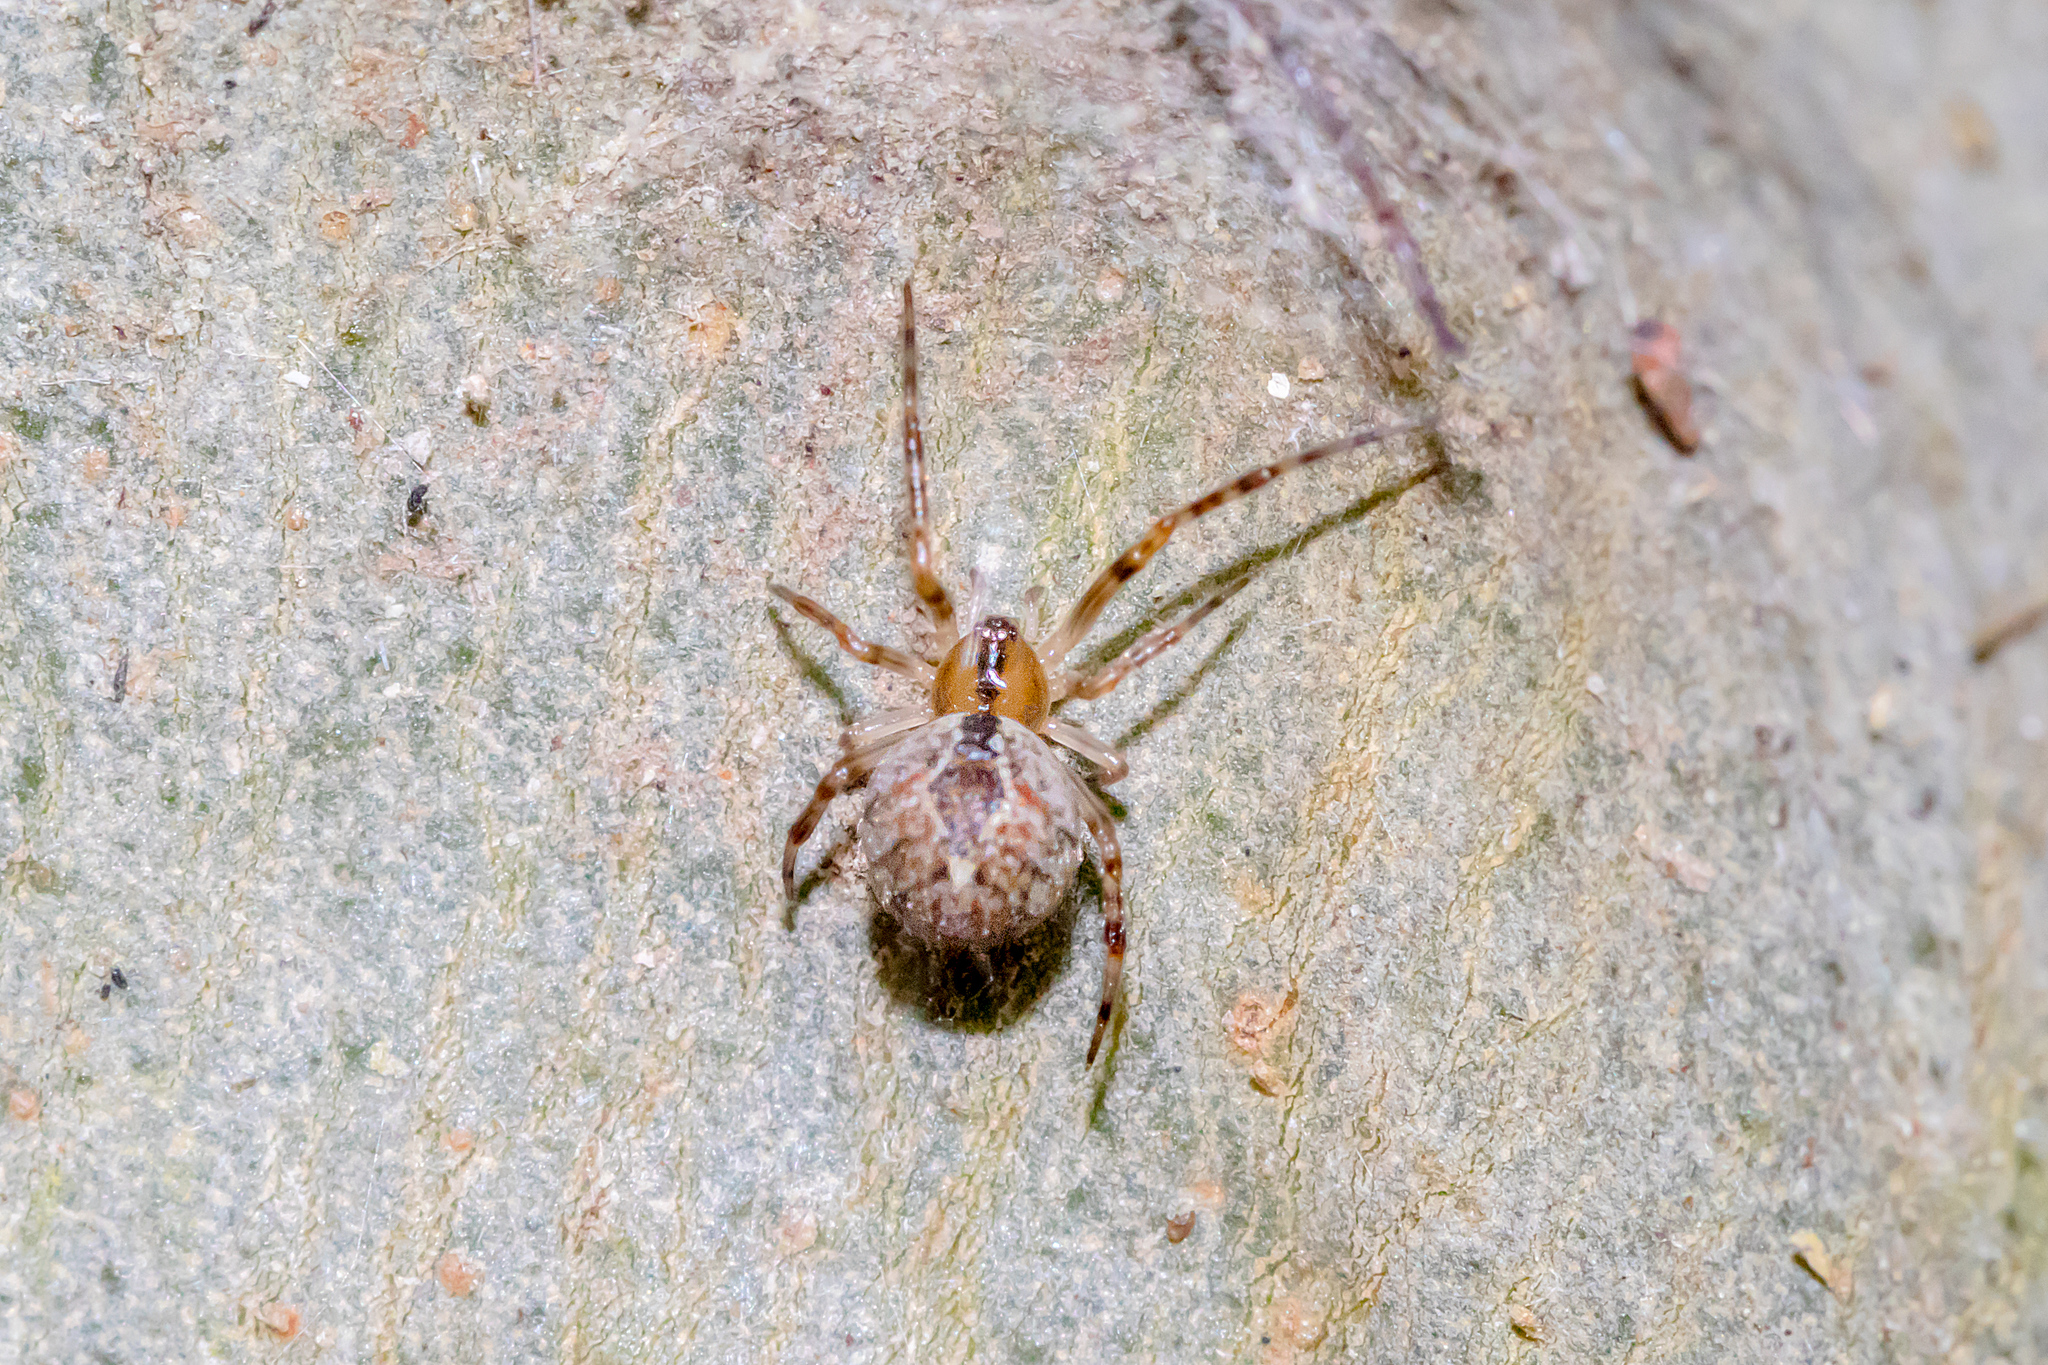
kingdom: Animalia
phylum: Arthropoda
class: Arachnida
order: Araneae
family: Theridiidae
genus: Cryptachaea
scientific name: Cryptachaea veruculata
